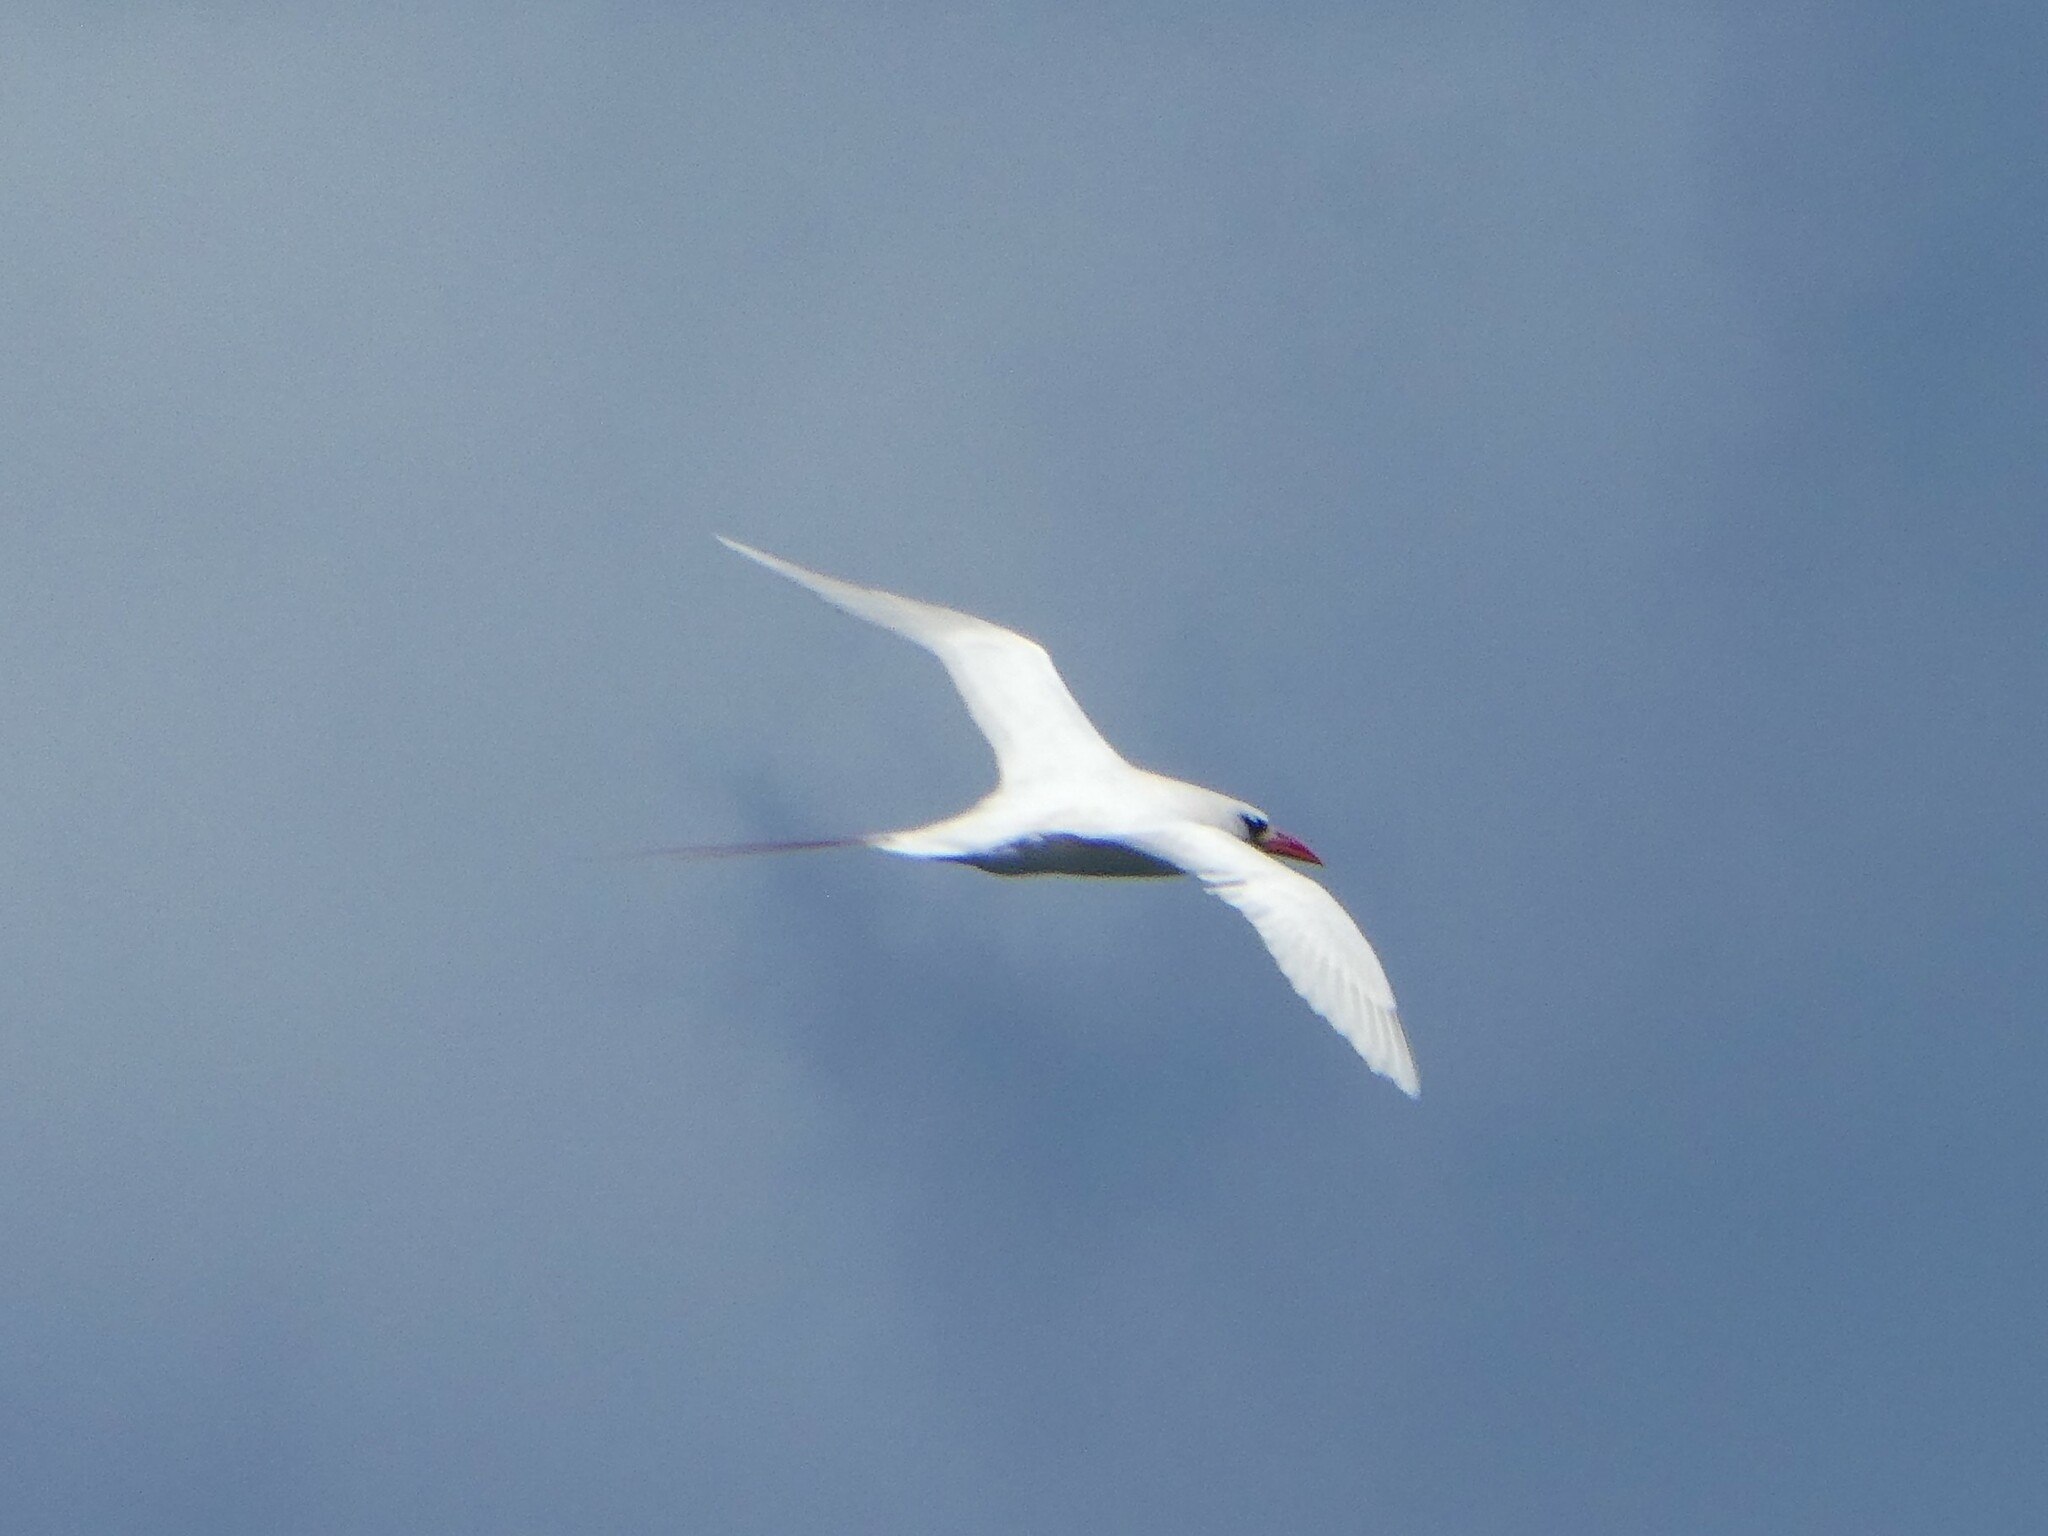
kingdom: Animalia
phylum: Chordata
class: Aves
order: Phaethontiformes
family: Phaethontidae
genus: Phaethon
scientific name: Phaethon rubricauda
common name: Red-tailed tropicbird
